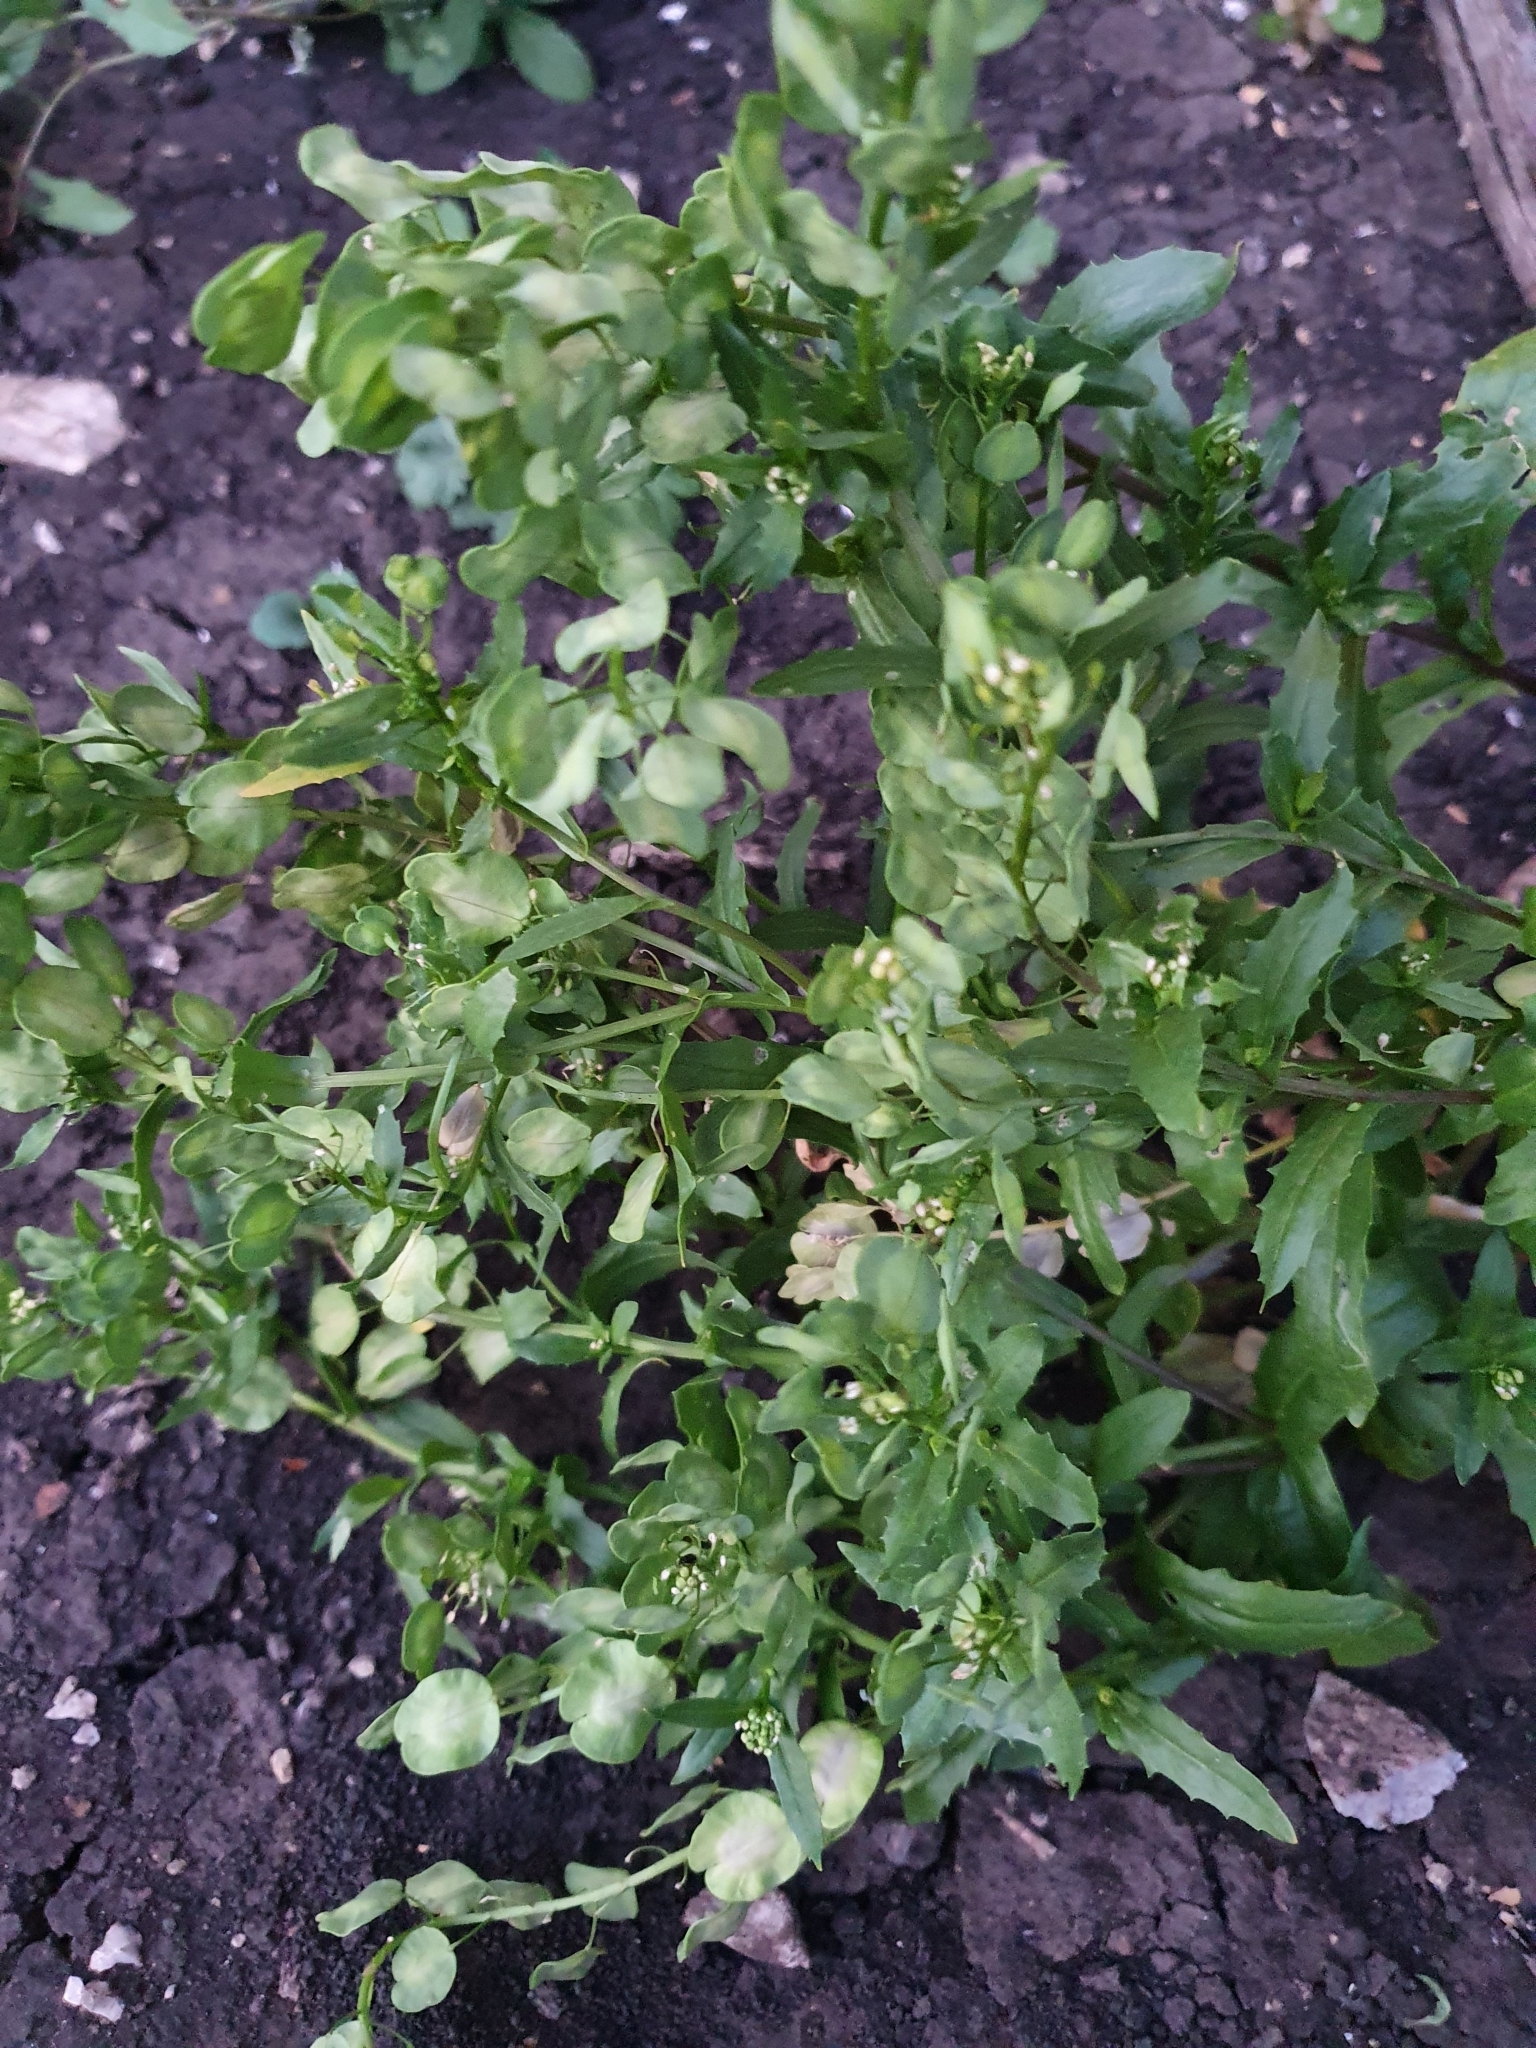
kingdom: Plantae
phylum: Tracheophyta
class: Magnoliopsida
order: Brassicales
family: Brassicaceae
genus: Thlaspi
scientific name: Thlaspi arvense
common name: Field pennycress
